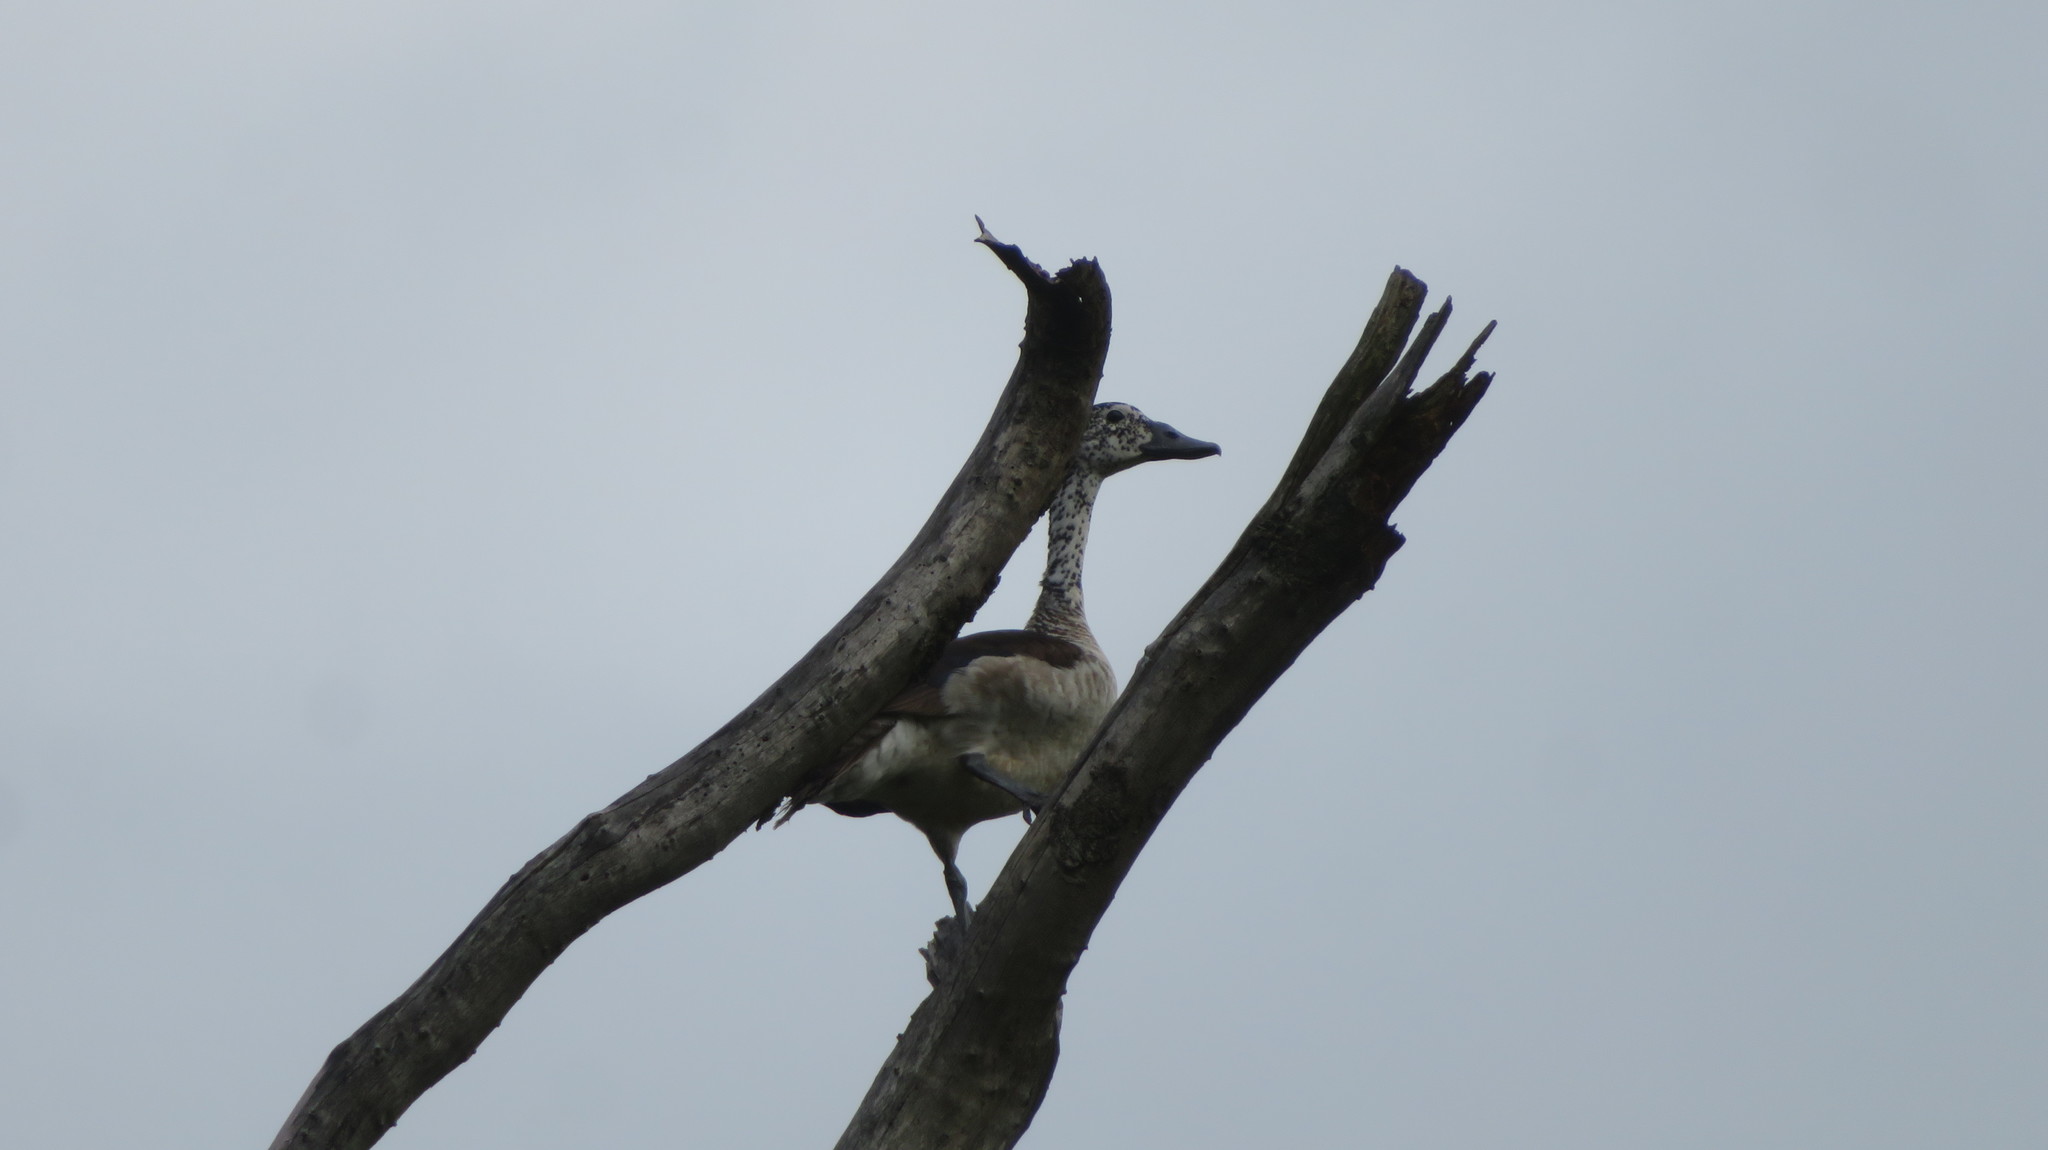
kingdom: Animalia
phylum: Chordata
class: Aves
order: Anseriformes
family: Anatidae
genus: Sarkidiornis
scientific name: Sarkidiornis melanotos
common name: Comb duck
